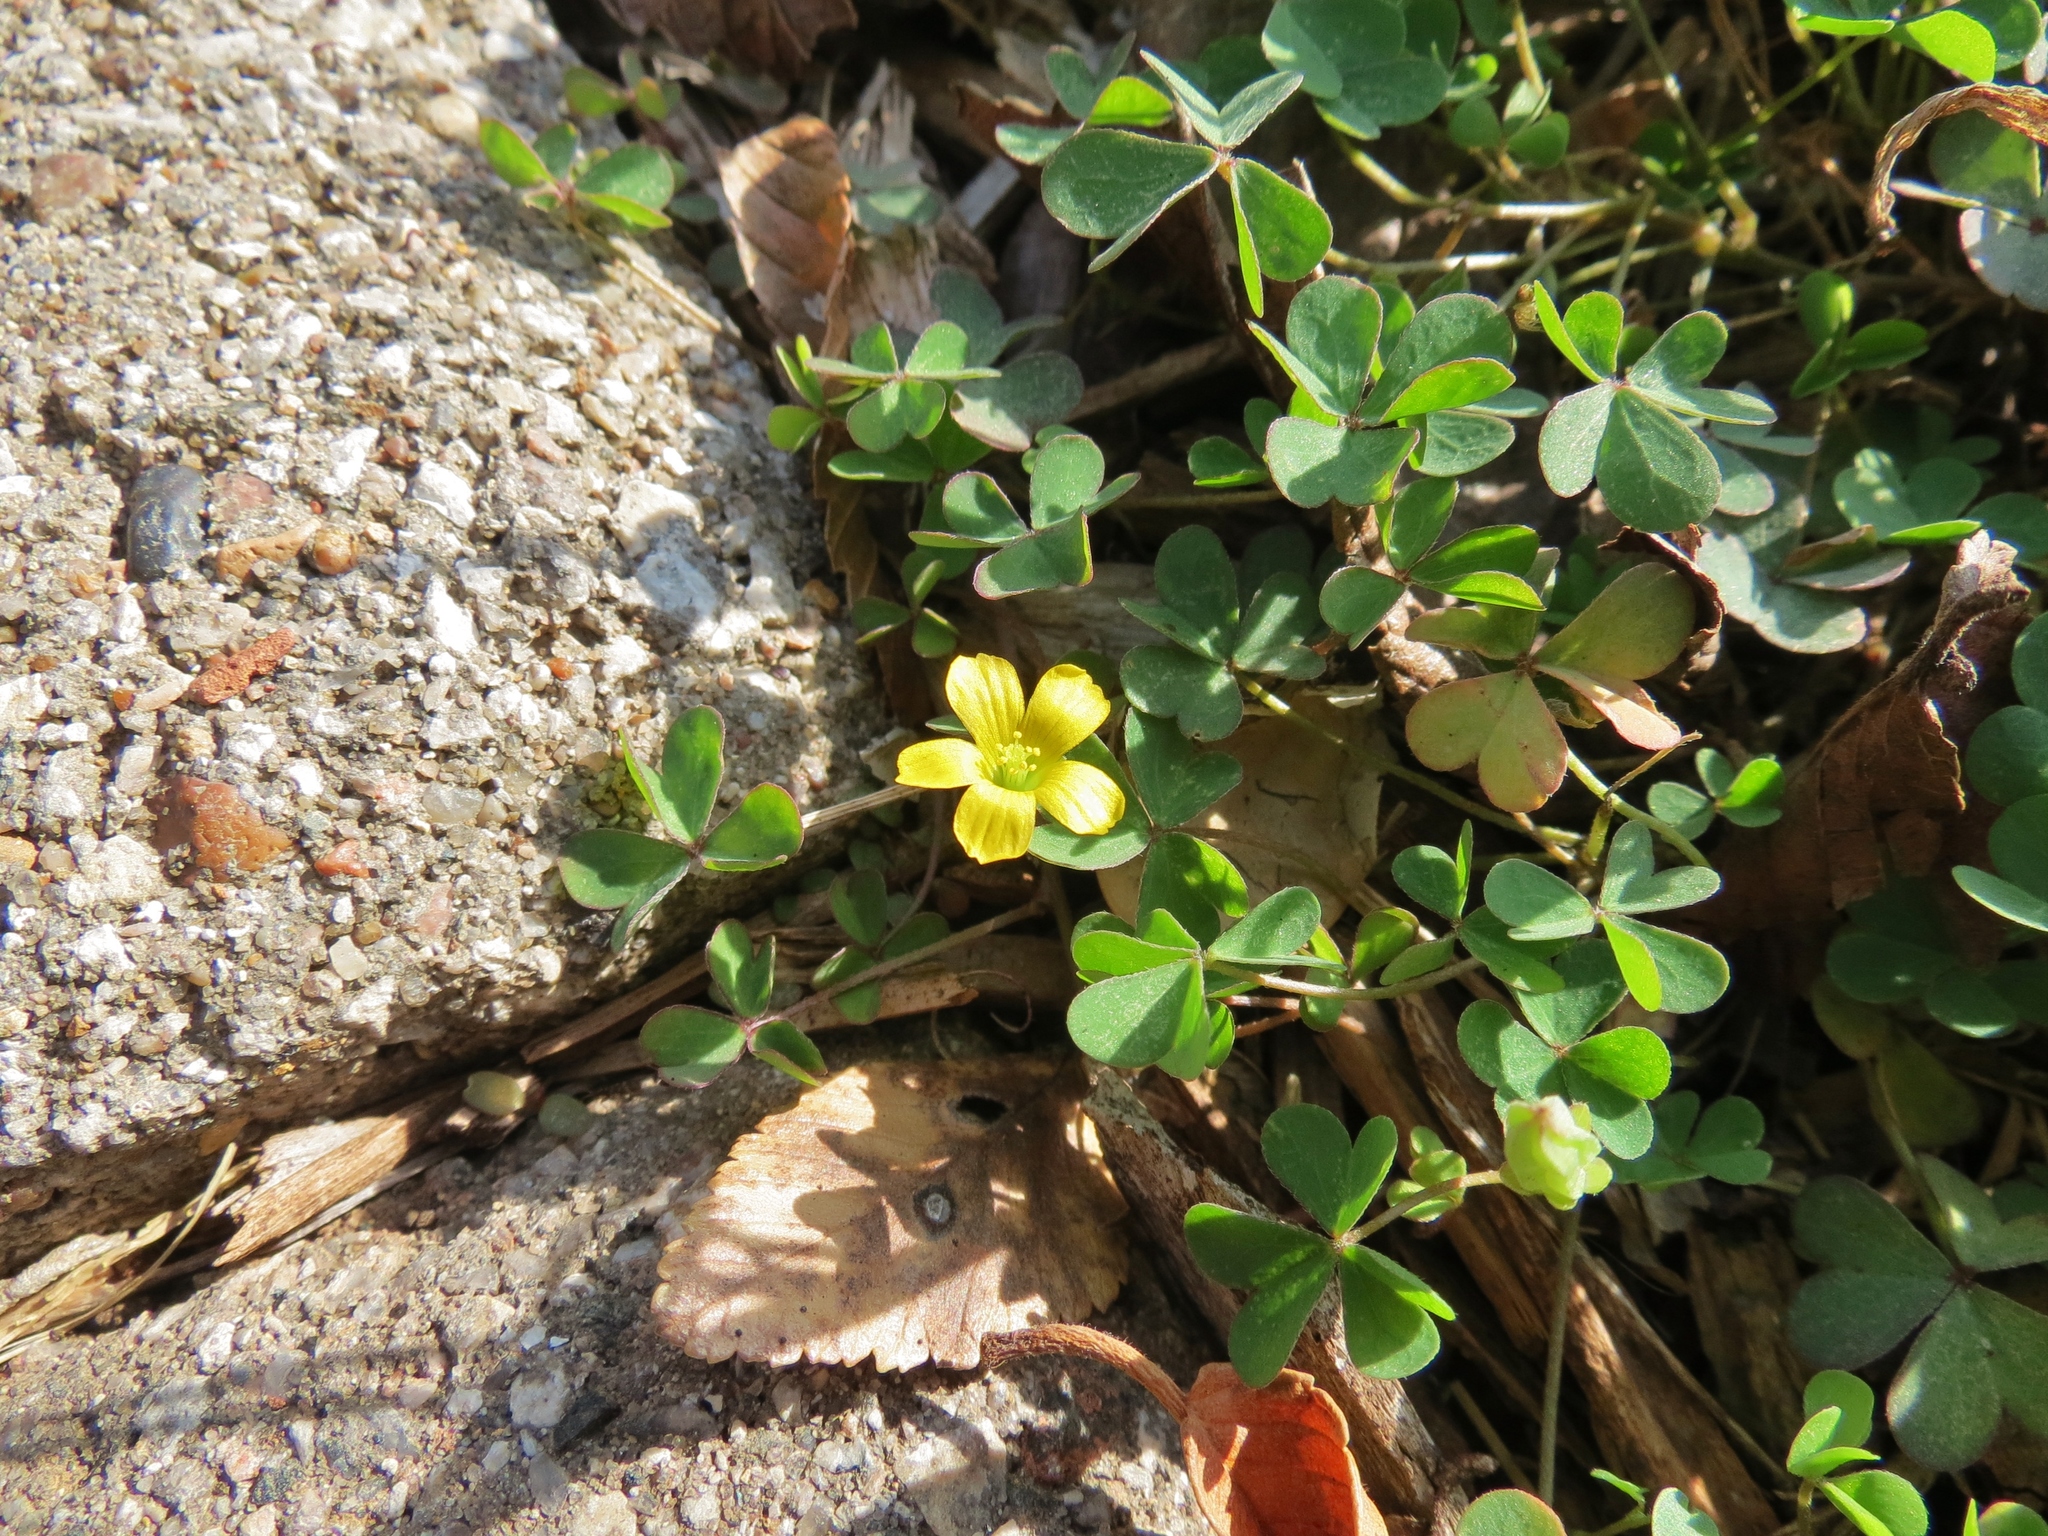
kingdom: Plantae
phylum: Tracheophyta
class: Magnoliopsida
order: Oxalidales
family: Oxalidaceae
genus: Oxalis
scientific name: Oxalis corniculata
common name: Procumbent yellow-sorrel
